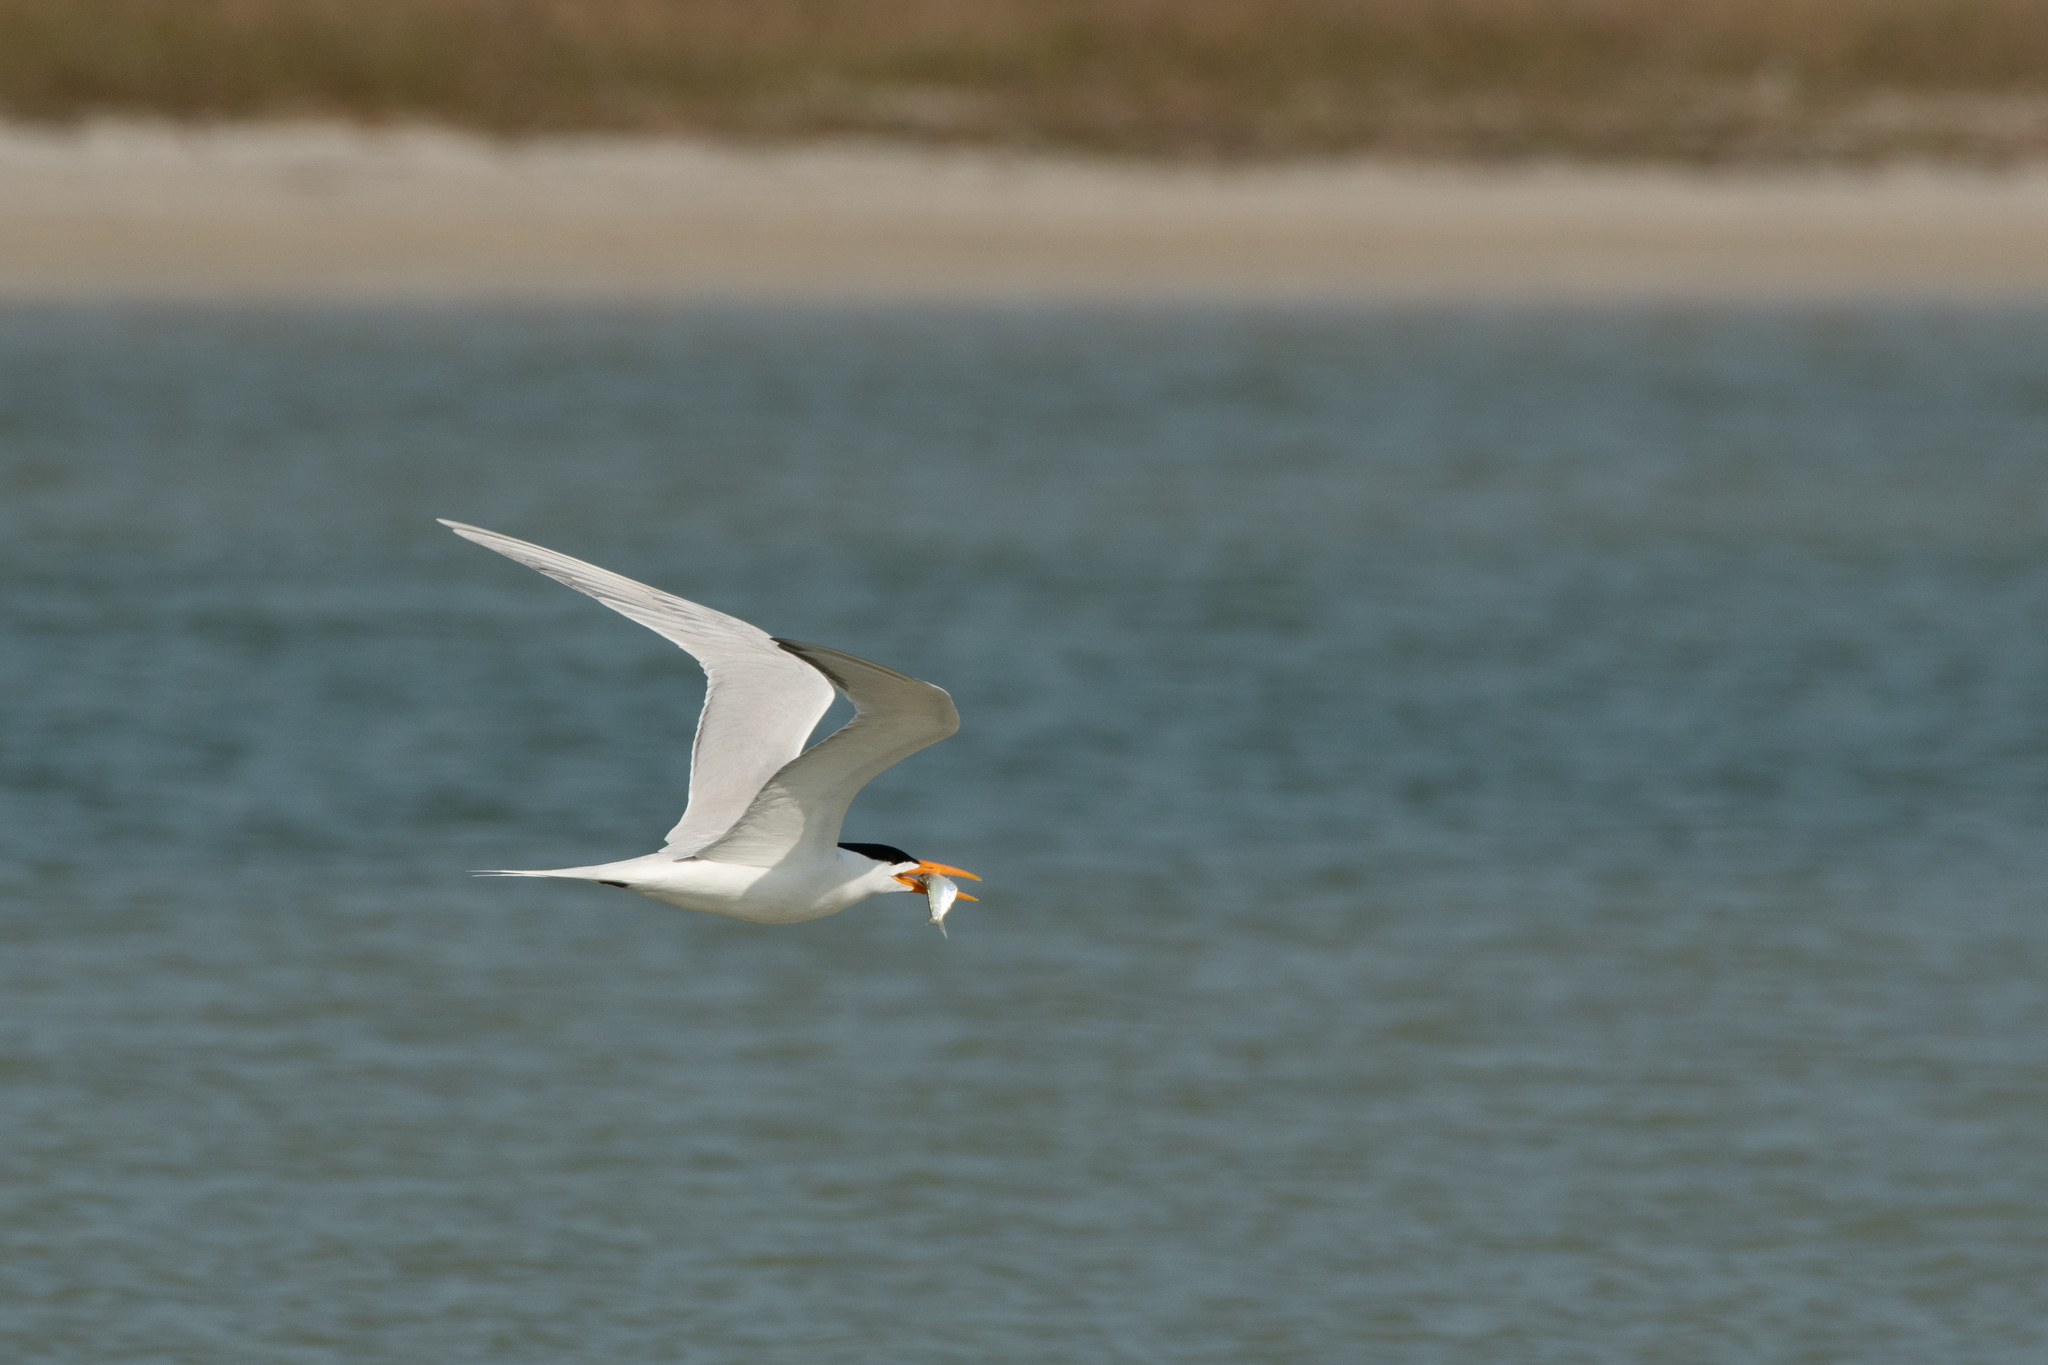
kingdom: Animalia
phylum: Chordata
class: Aves
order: Charadriiformes
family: Laridae
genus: Thalasseus
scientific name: Thalasseus maximus
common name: Royal tern
